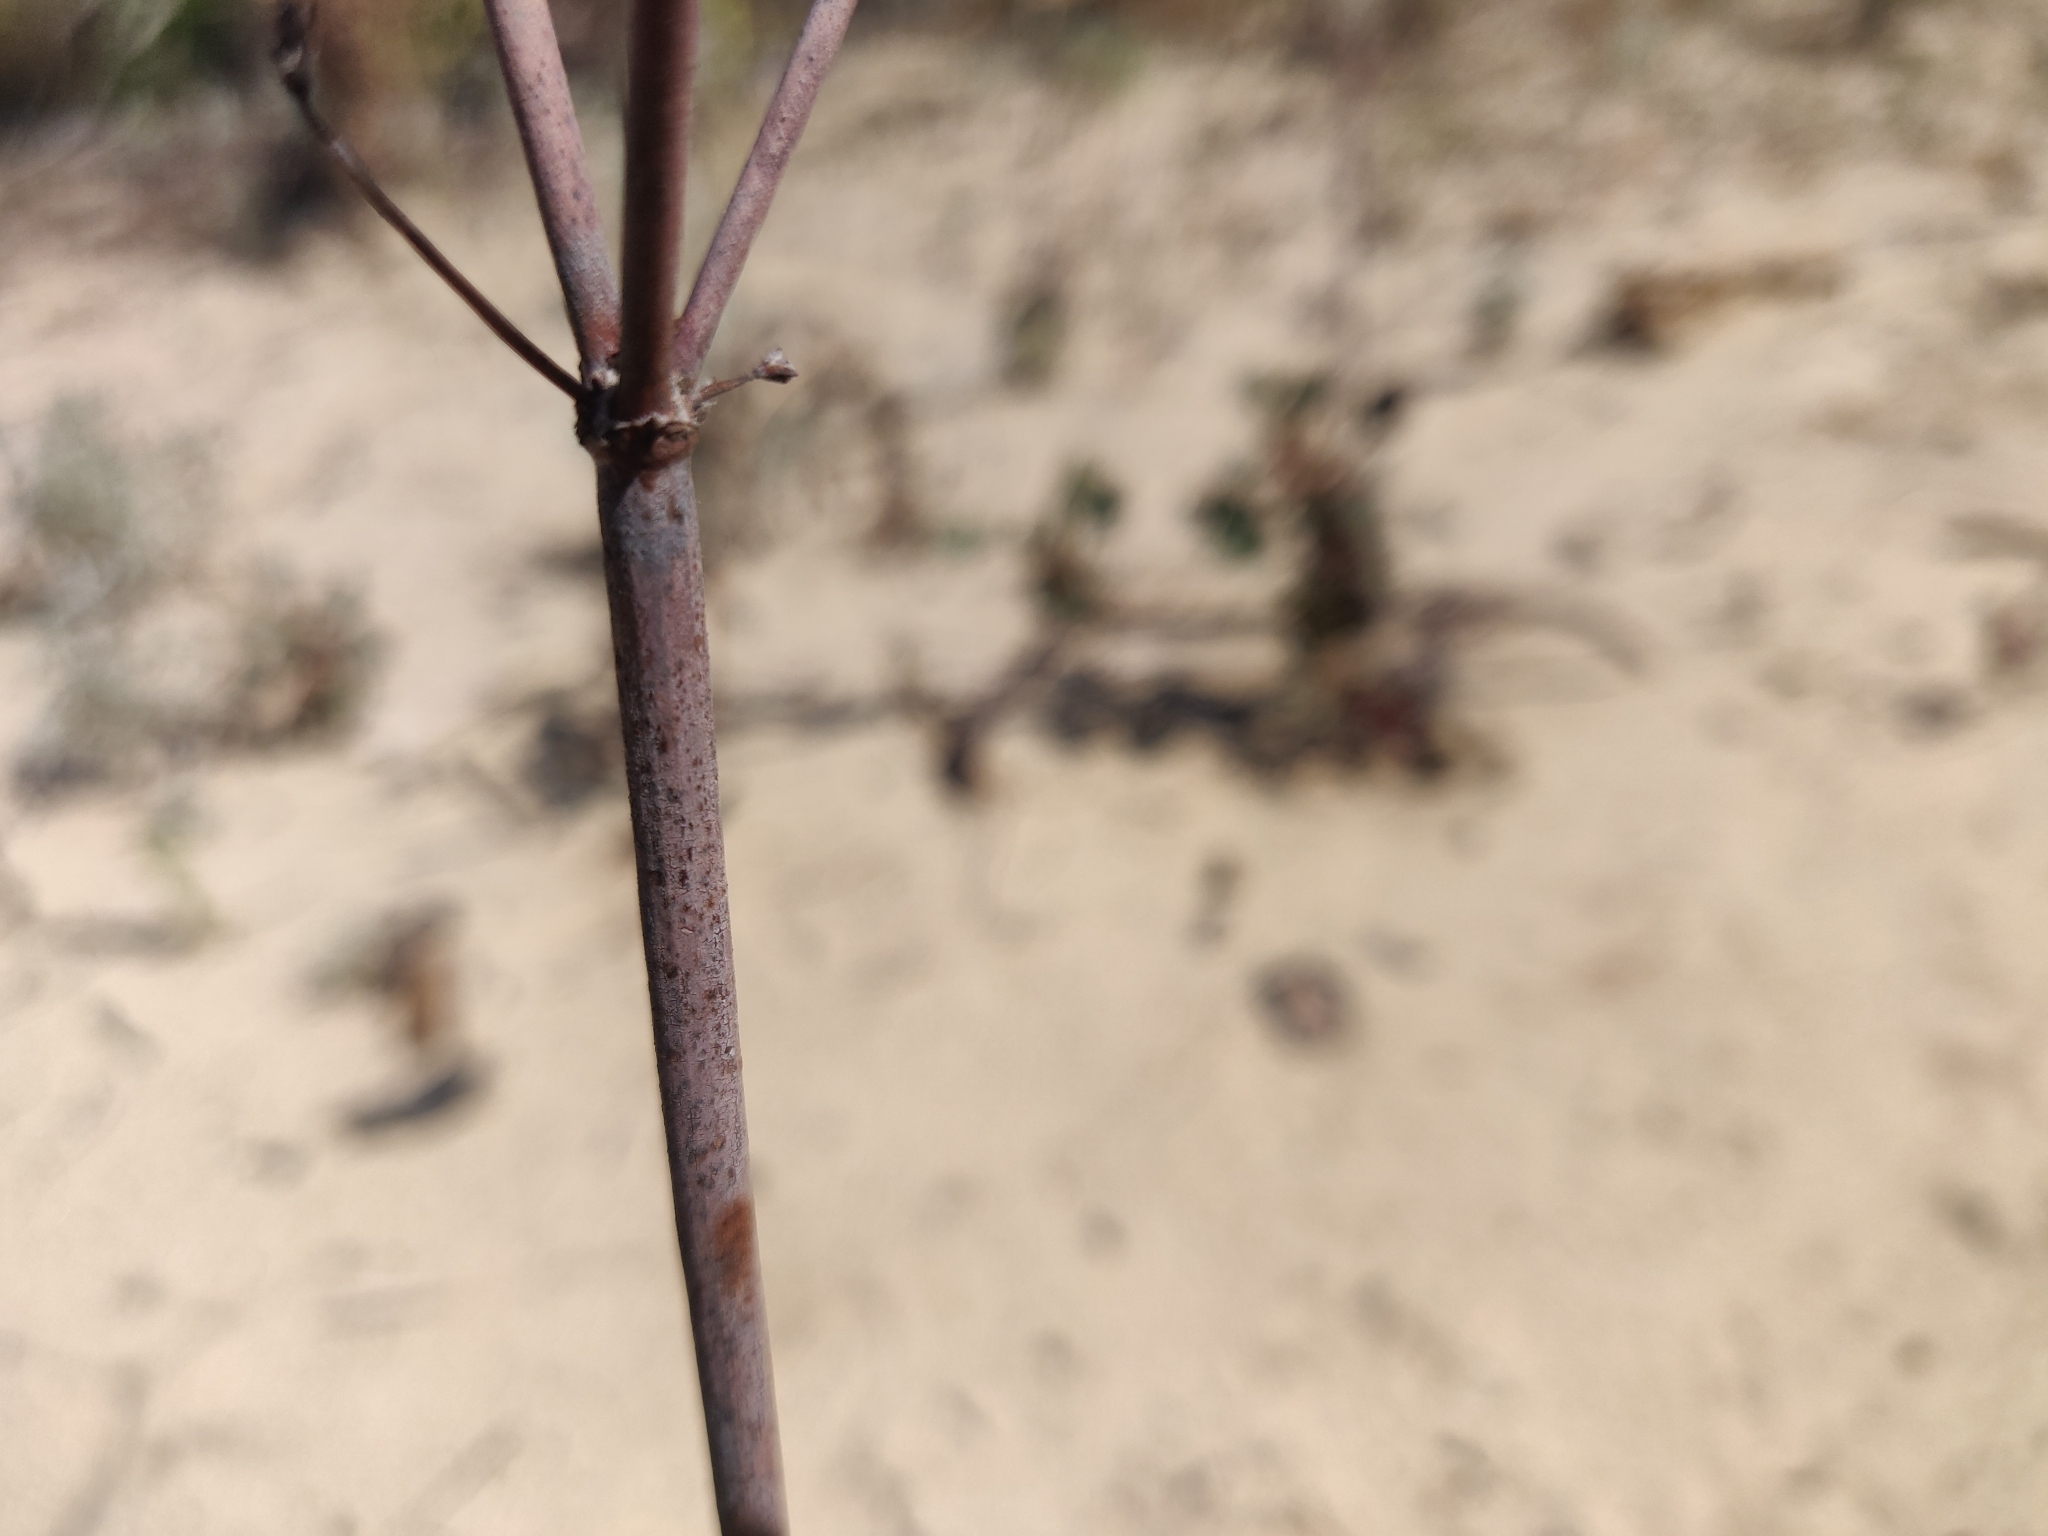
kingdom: Plantae
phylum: Tracheophyta
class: Magnoliopsida
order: Caryophyllales
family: Polygonaceae
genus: Eriogonum
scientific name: Eriogonum nudum
